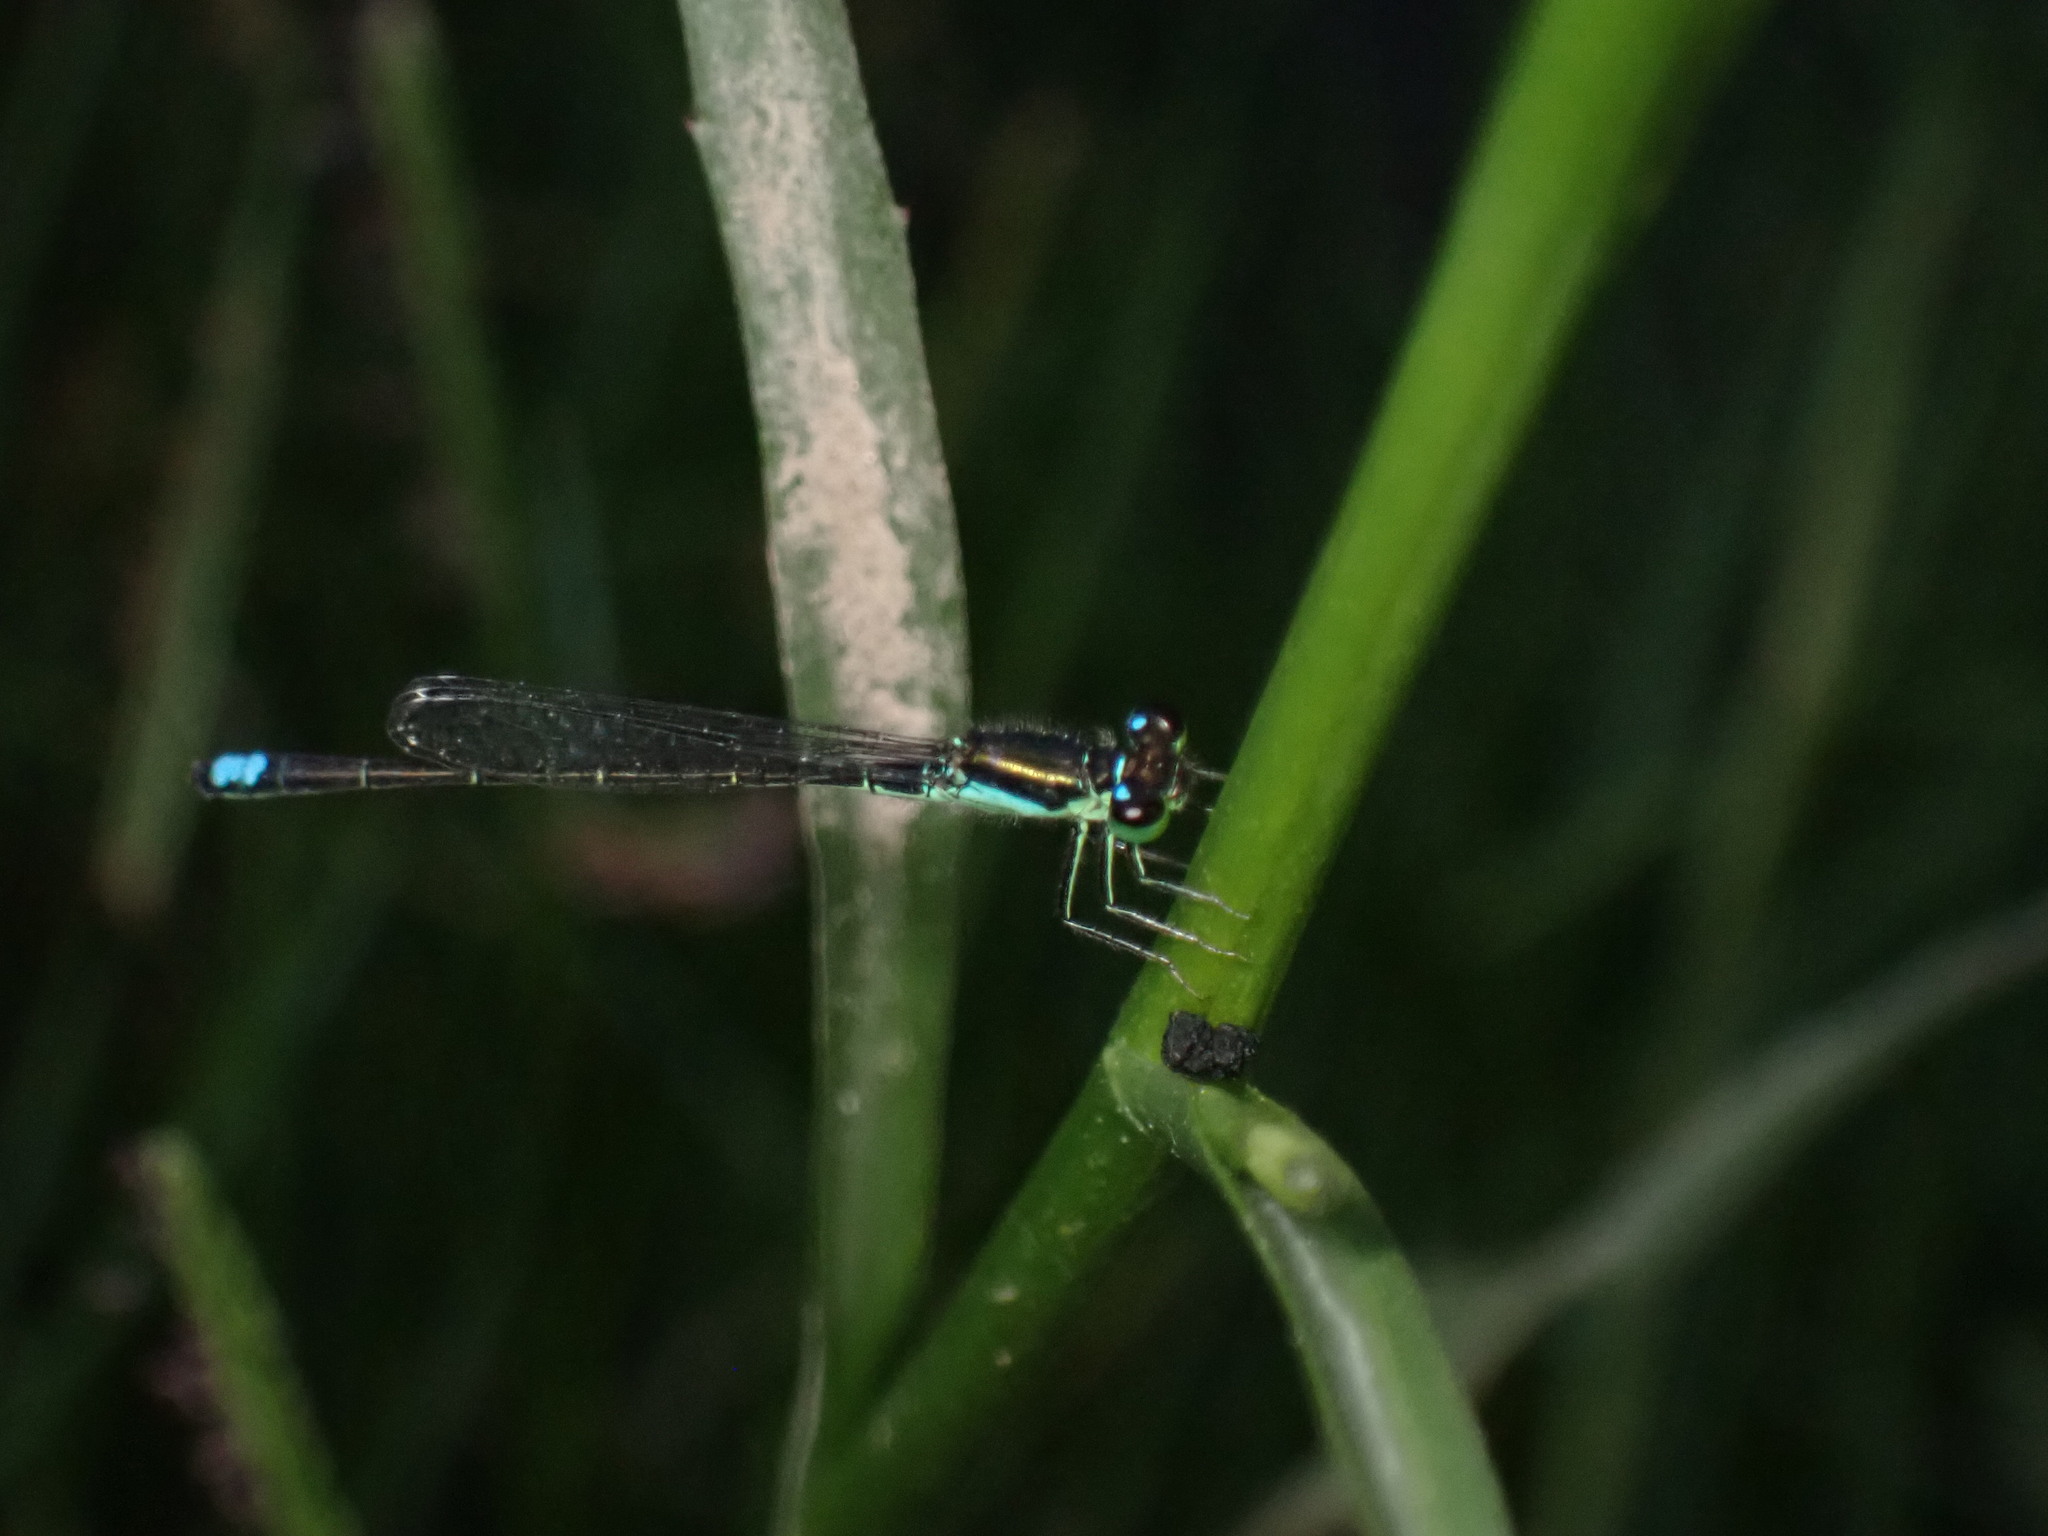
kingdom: Animalia
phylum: Arthropoda
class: Insecta
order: Odonata
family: Coenagrionidae
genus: Ischnura
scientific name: Ischnura denticollis
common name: Black-fronted forktail
